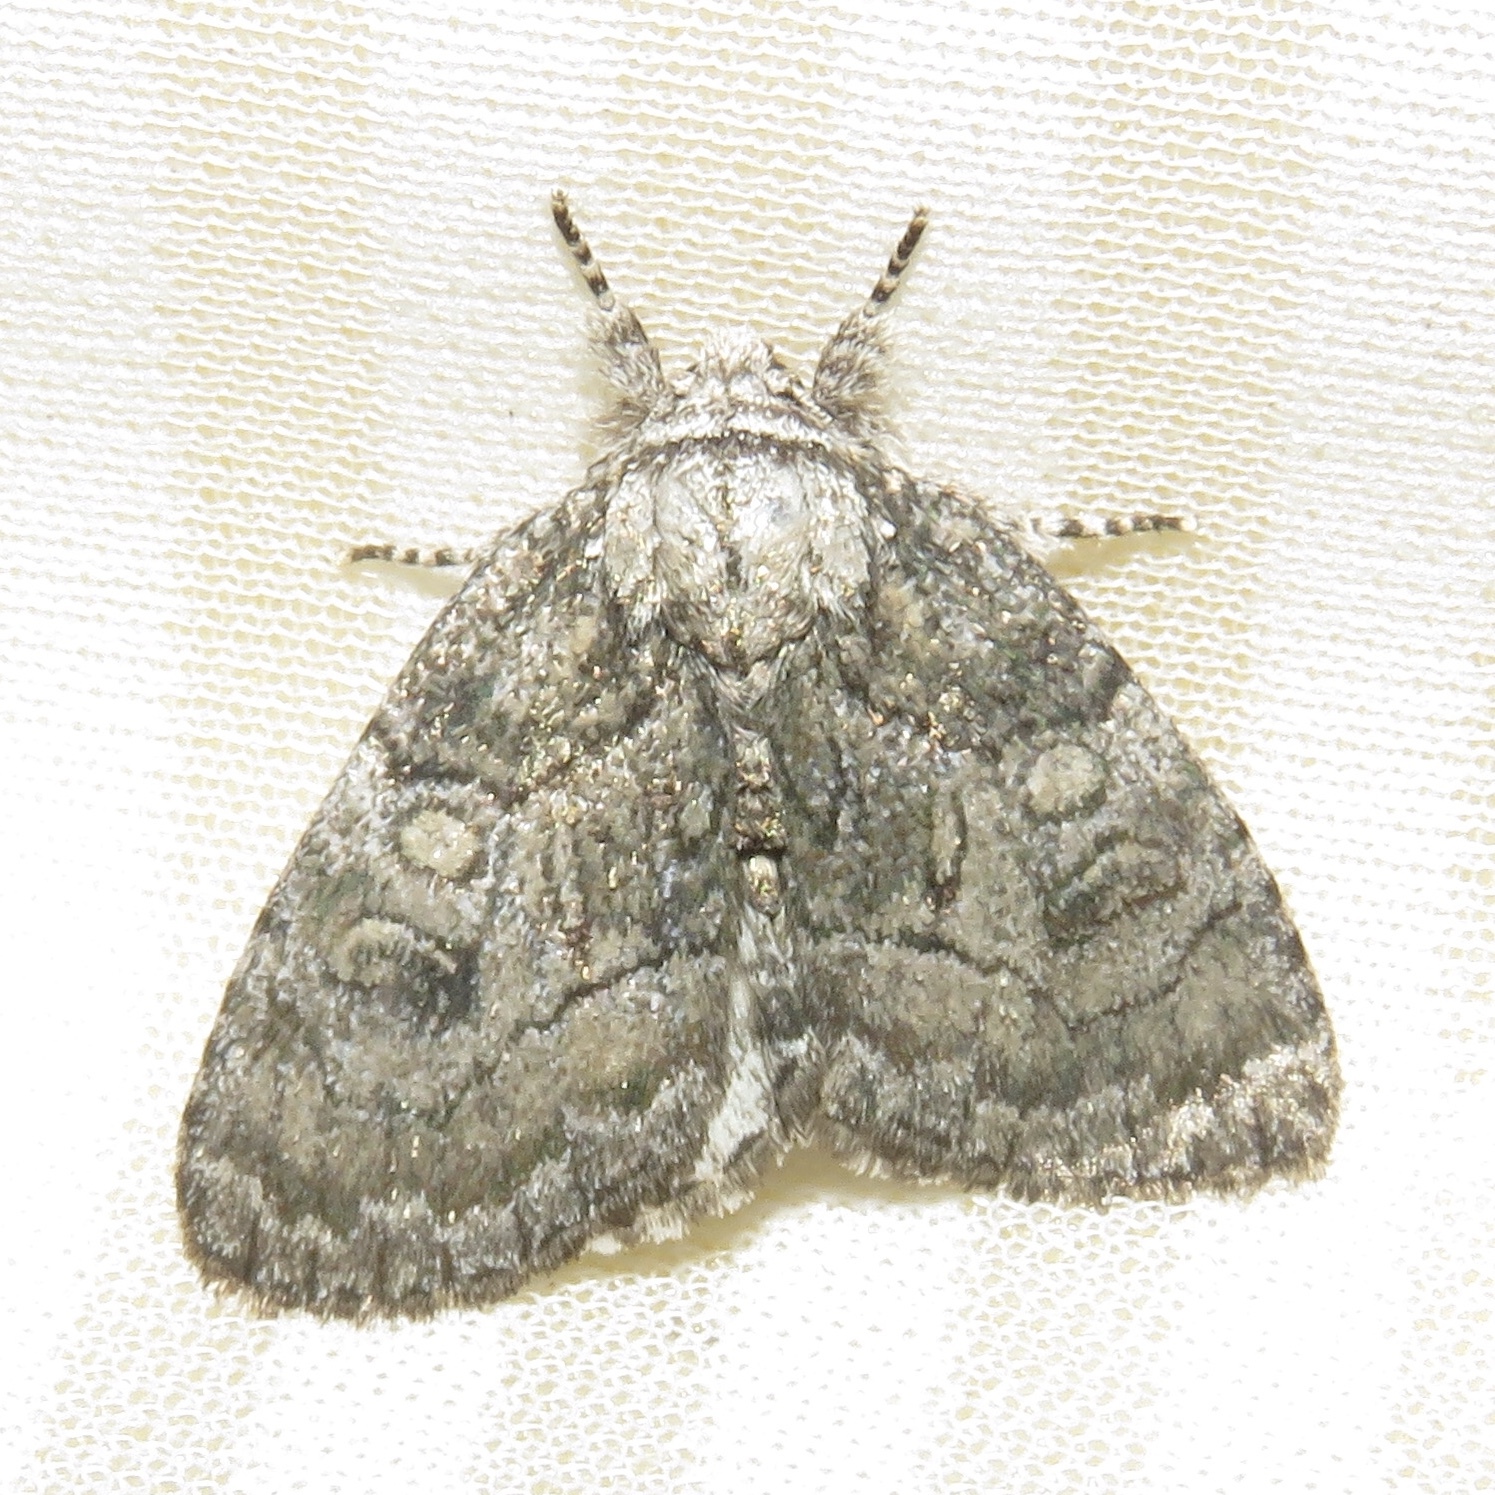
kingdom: Animalia
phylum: Arthropoda
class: Insecta
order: Lepidoptera
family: Noctuidae
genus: Raphia
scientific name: Raphia frater
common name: Brother
